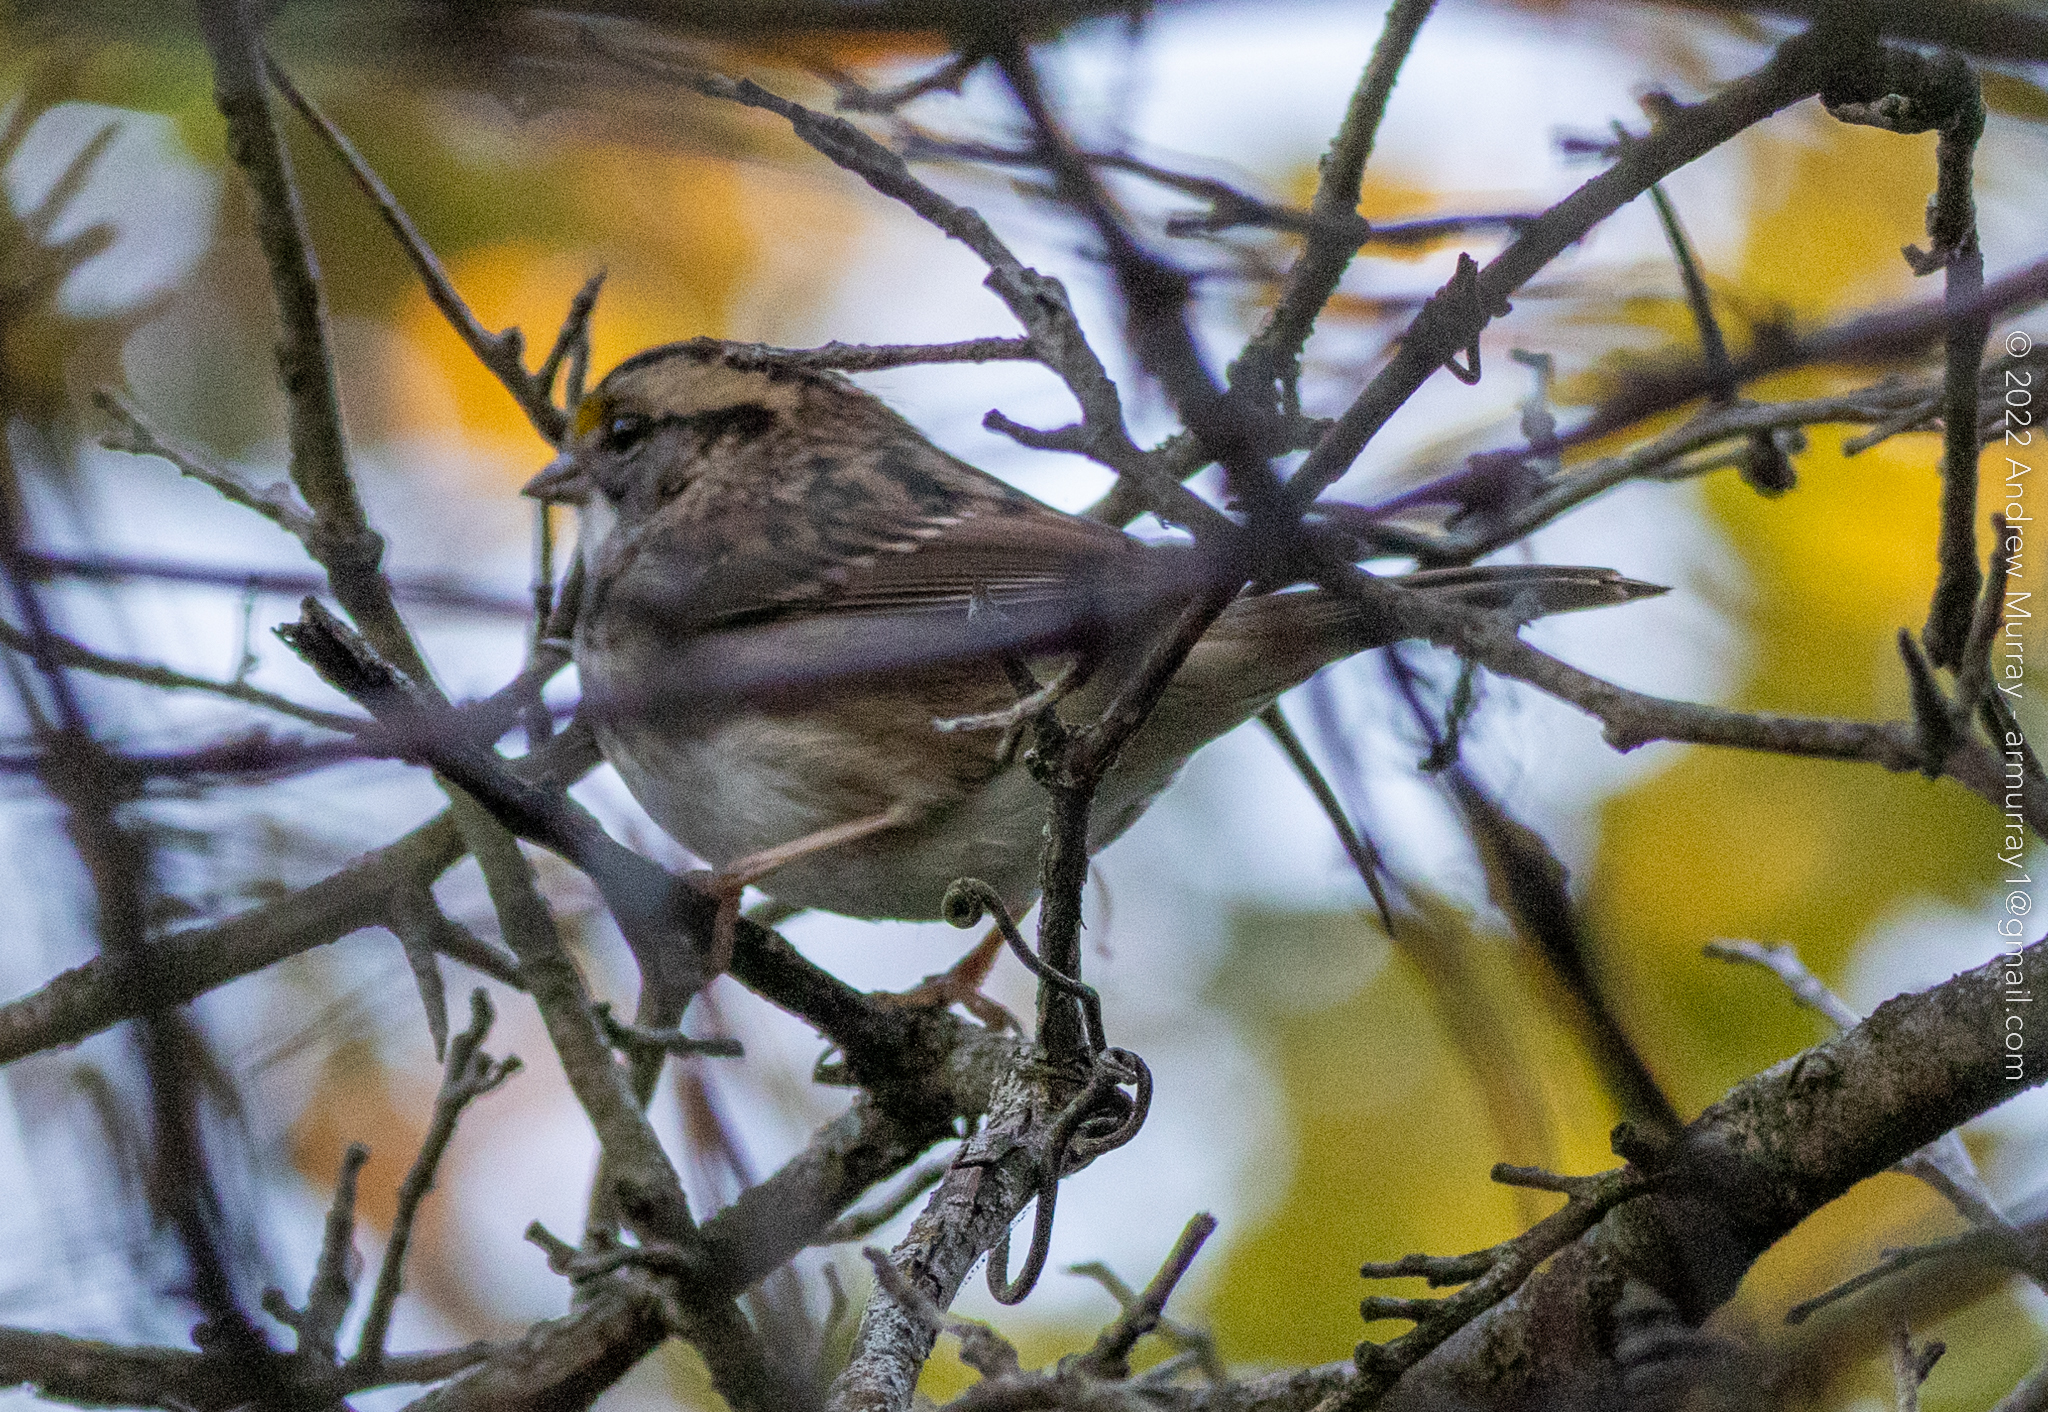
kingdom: Animalia
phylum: Chordata
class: Aves
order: Passeriformes
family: Passerellidae
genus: Zonotrichia
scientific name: Zonotrichia albicollis
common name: White-throated sparrow
